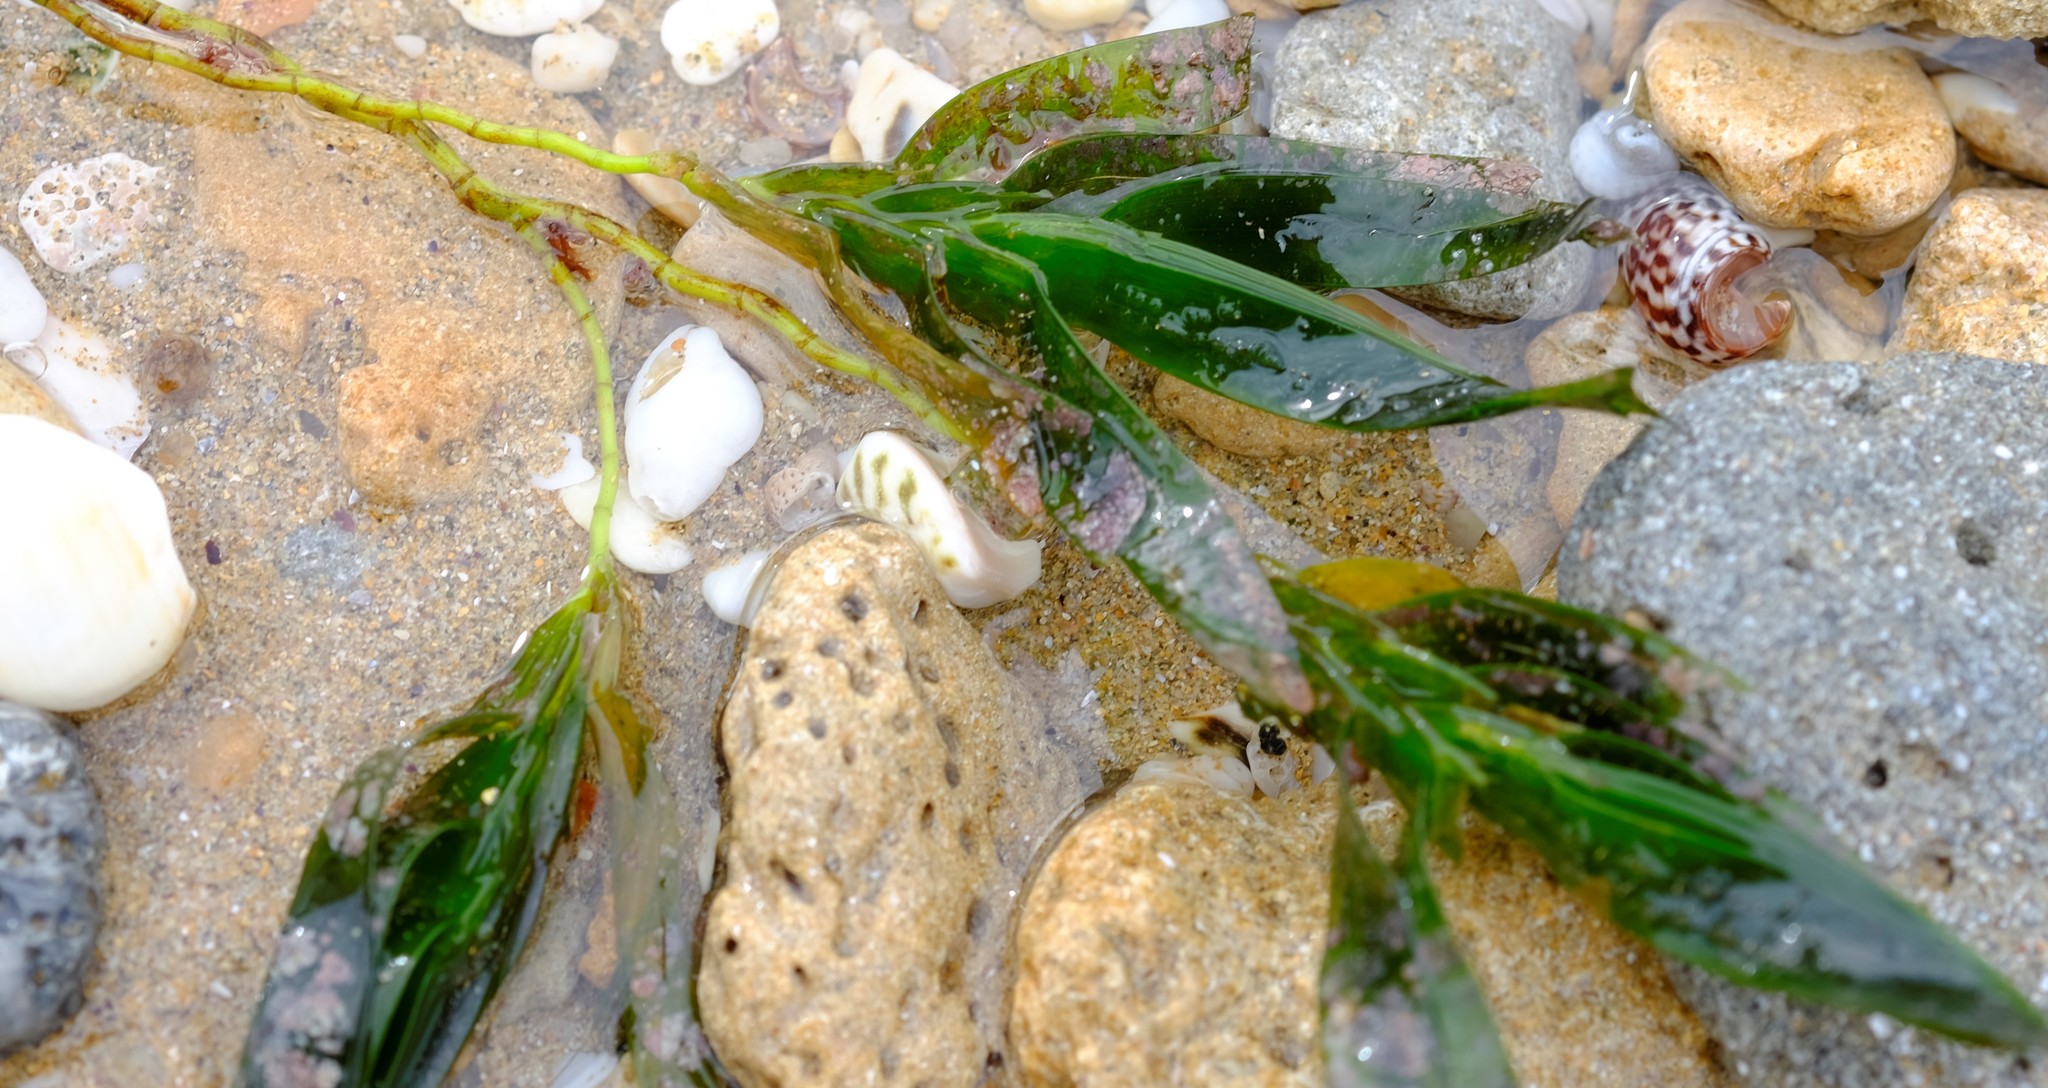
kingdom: Plantae
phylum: Tracheophyta
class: Liliopsida
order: Alismatales
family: Cymodoceaceae
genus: Amphibolis
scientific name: Amphibolis antarctica
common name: Species code: aa
